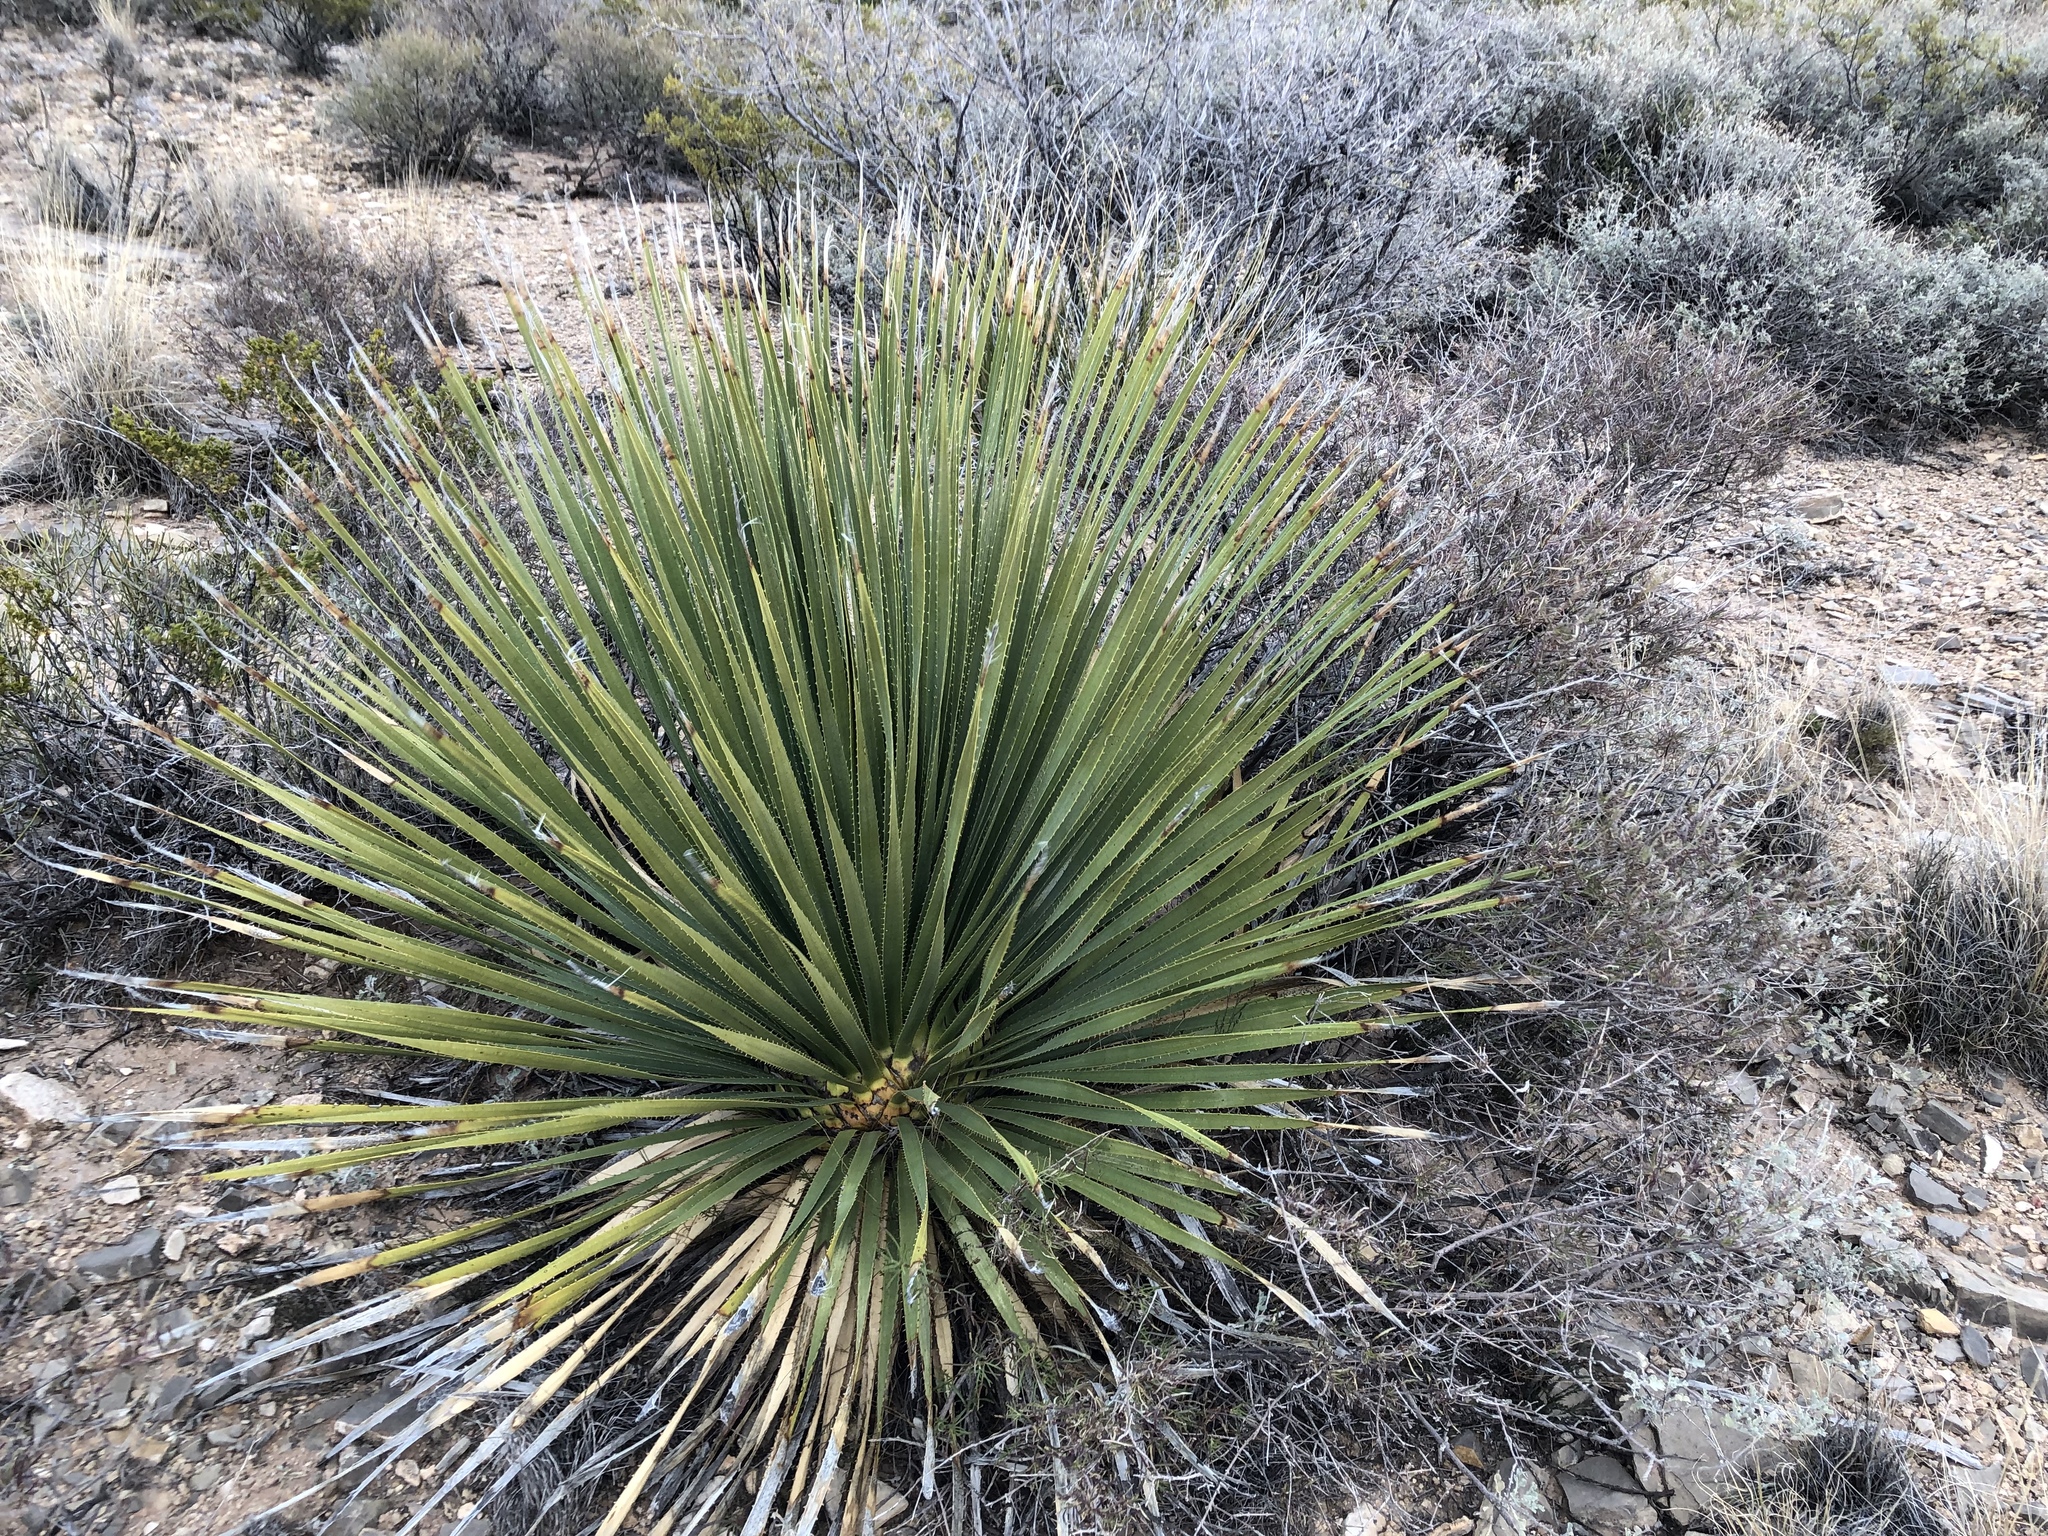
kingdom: Plantae
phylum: Tracheophyta
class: Liliopsida
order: Asparagales
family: Asparagaceae
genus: Dasylirion
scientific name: Dasylirion wheeleri
